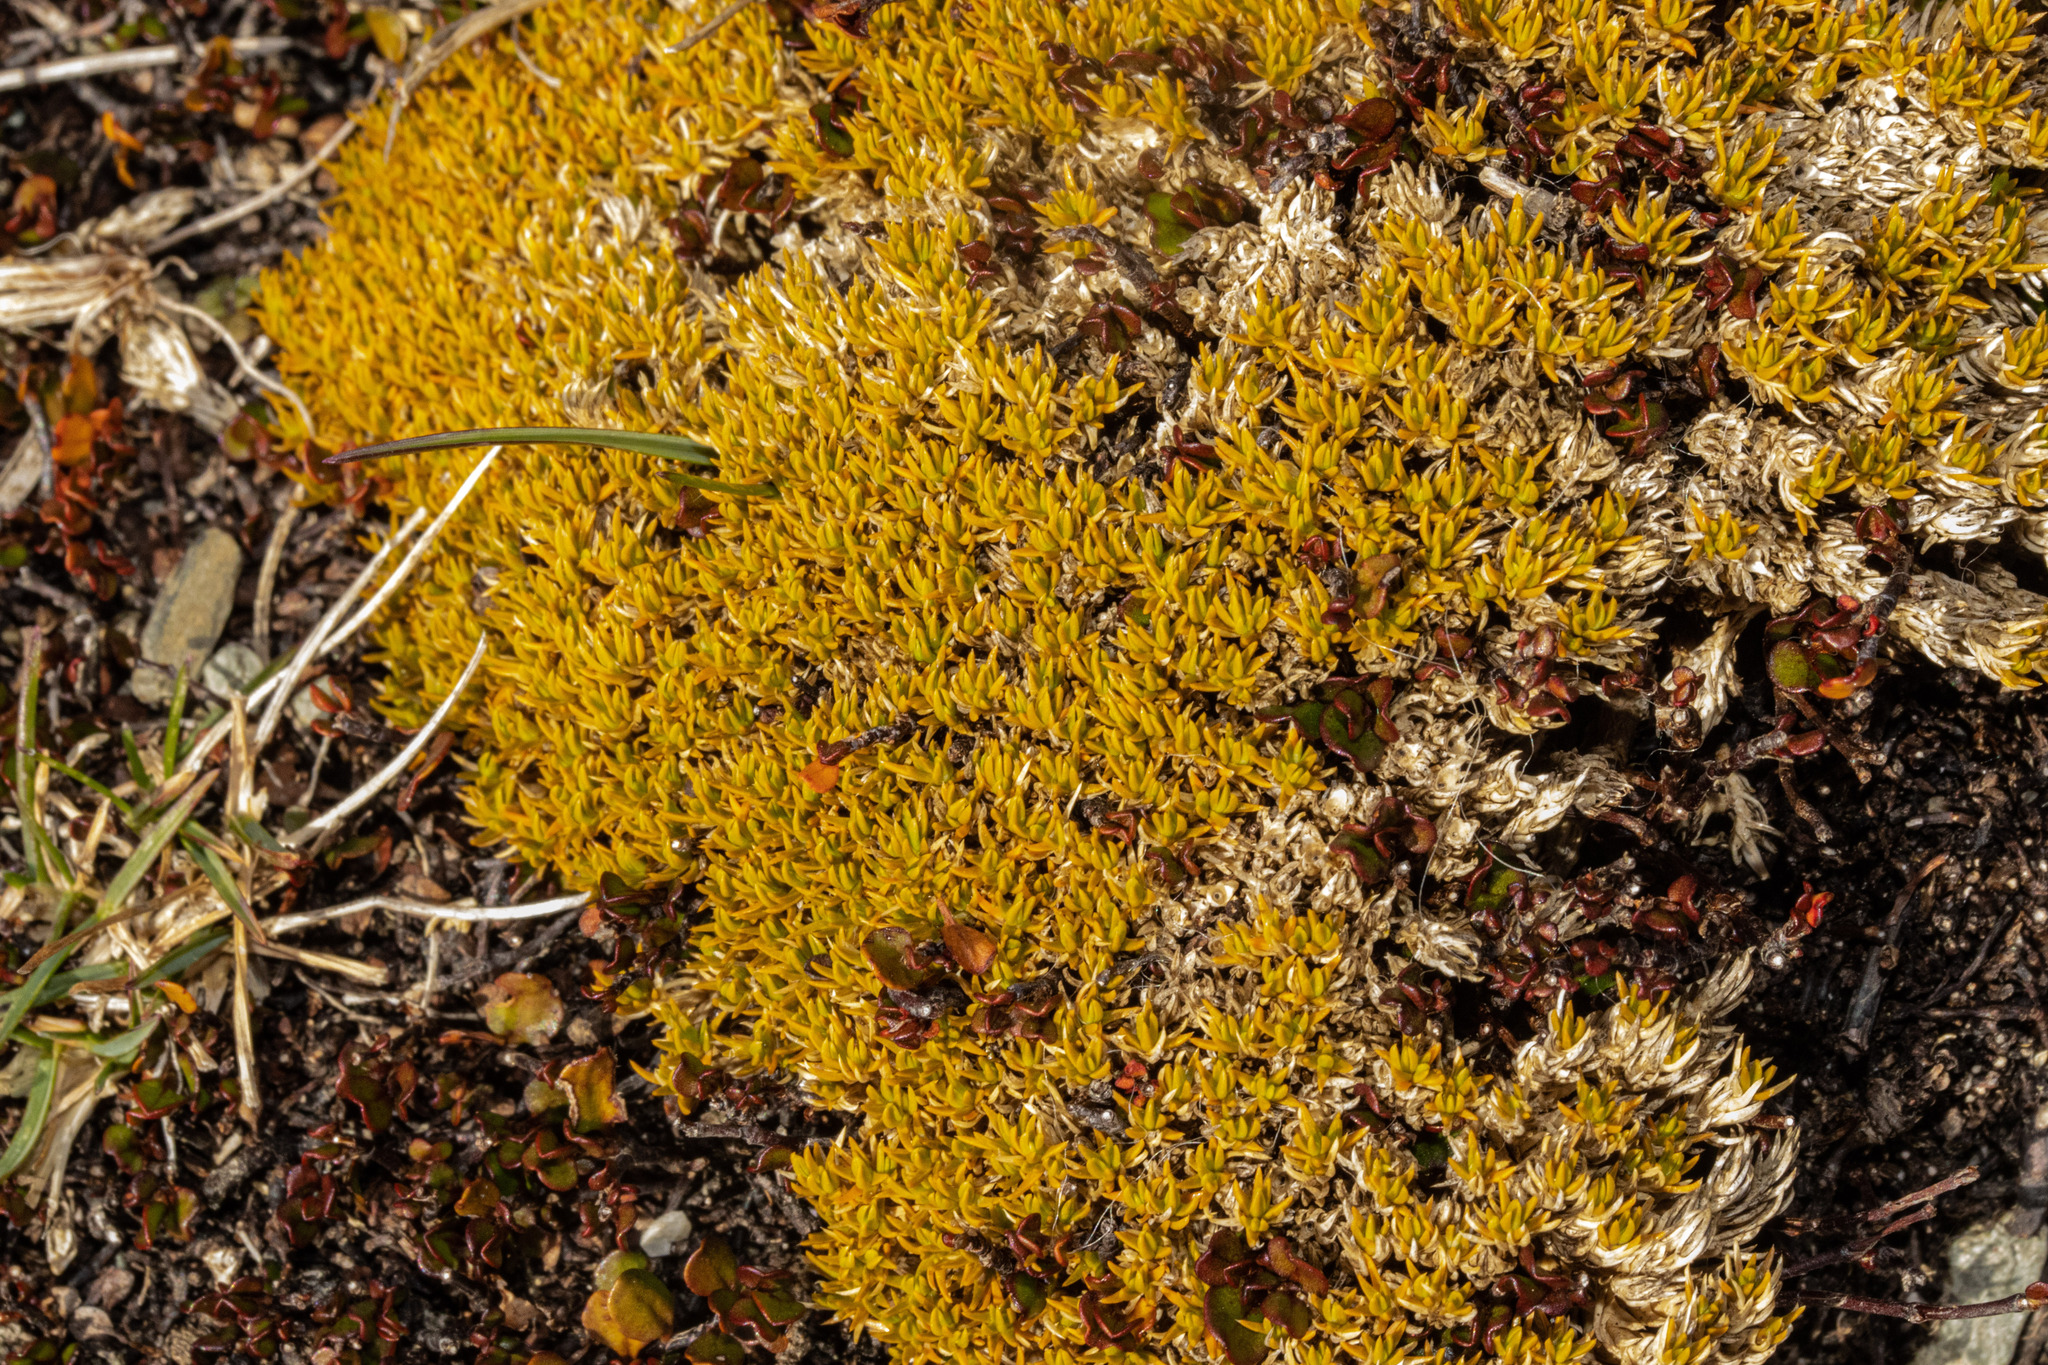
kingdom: Plantae
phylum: Tracheophyta
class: Magnoliopsida
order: Caryophyllales
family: Caryophyllaceae
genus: Scleranthus
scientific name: Scleranthus uniflorus
